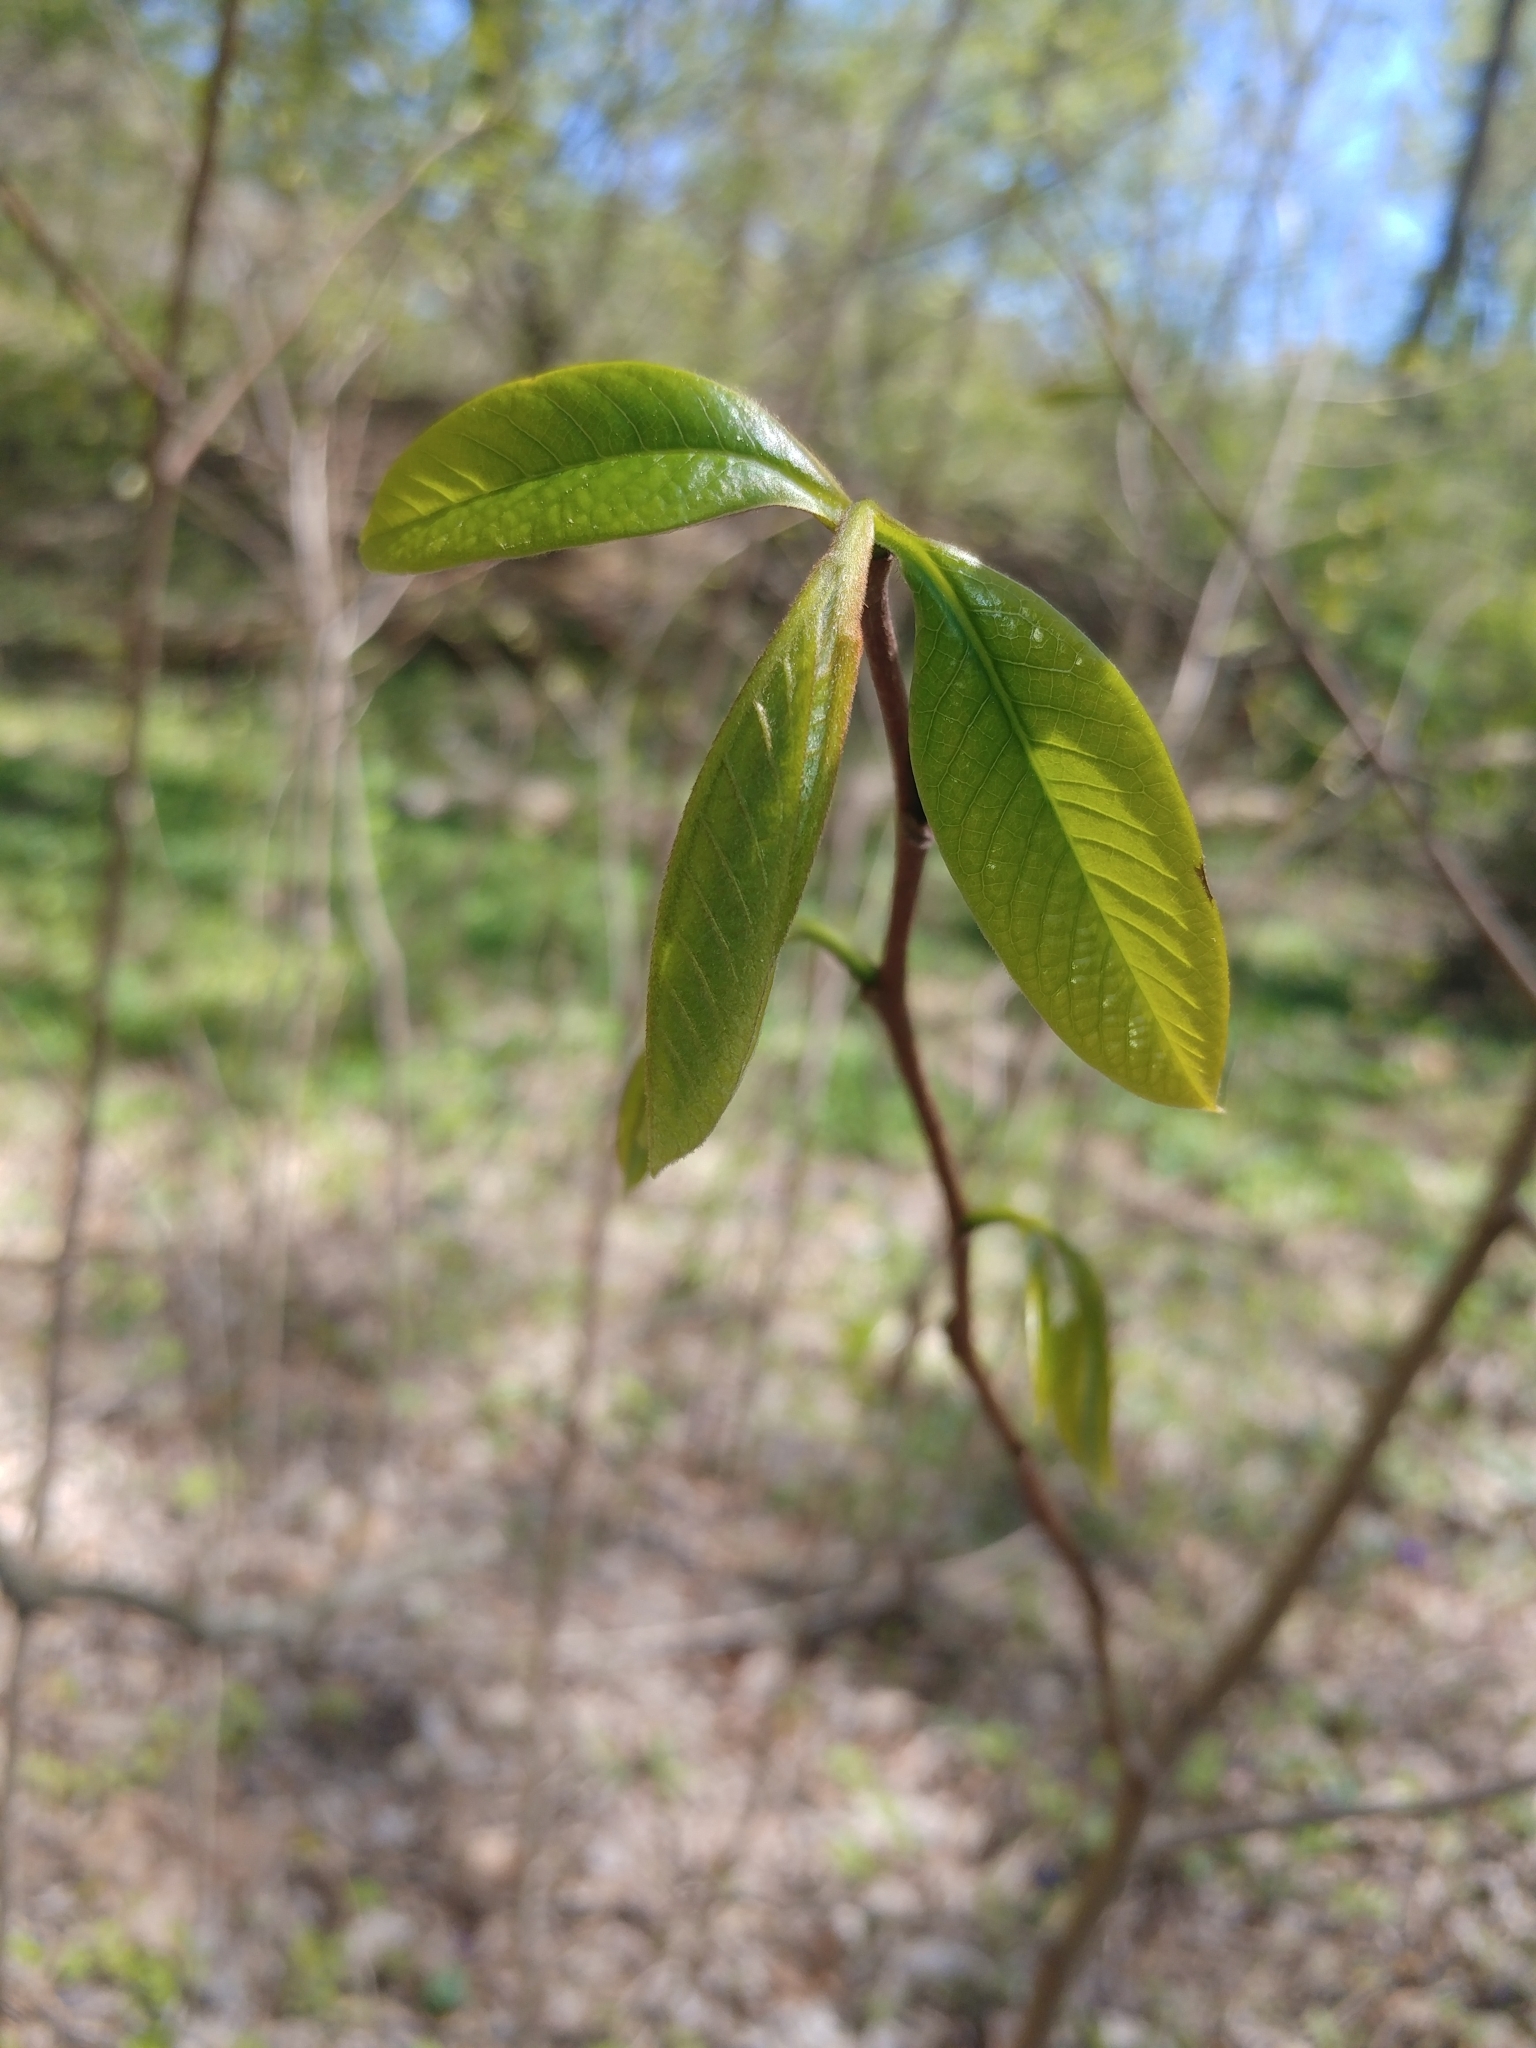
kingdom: Plantae
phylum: Tracheophyta
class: Magnoliopsida
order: Magnoliales
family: Annonaceae
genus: Asimina
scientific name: Asimina triloba
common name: Dog-banana
